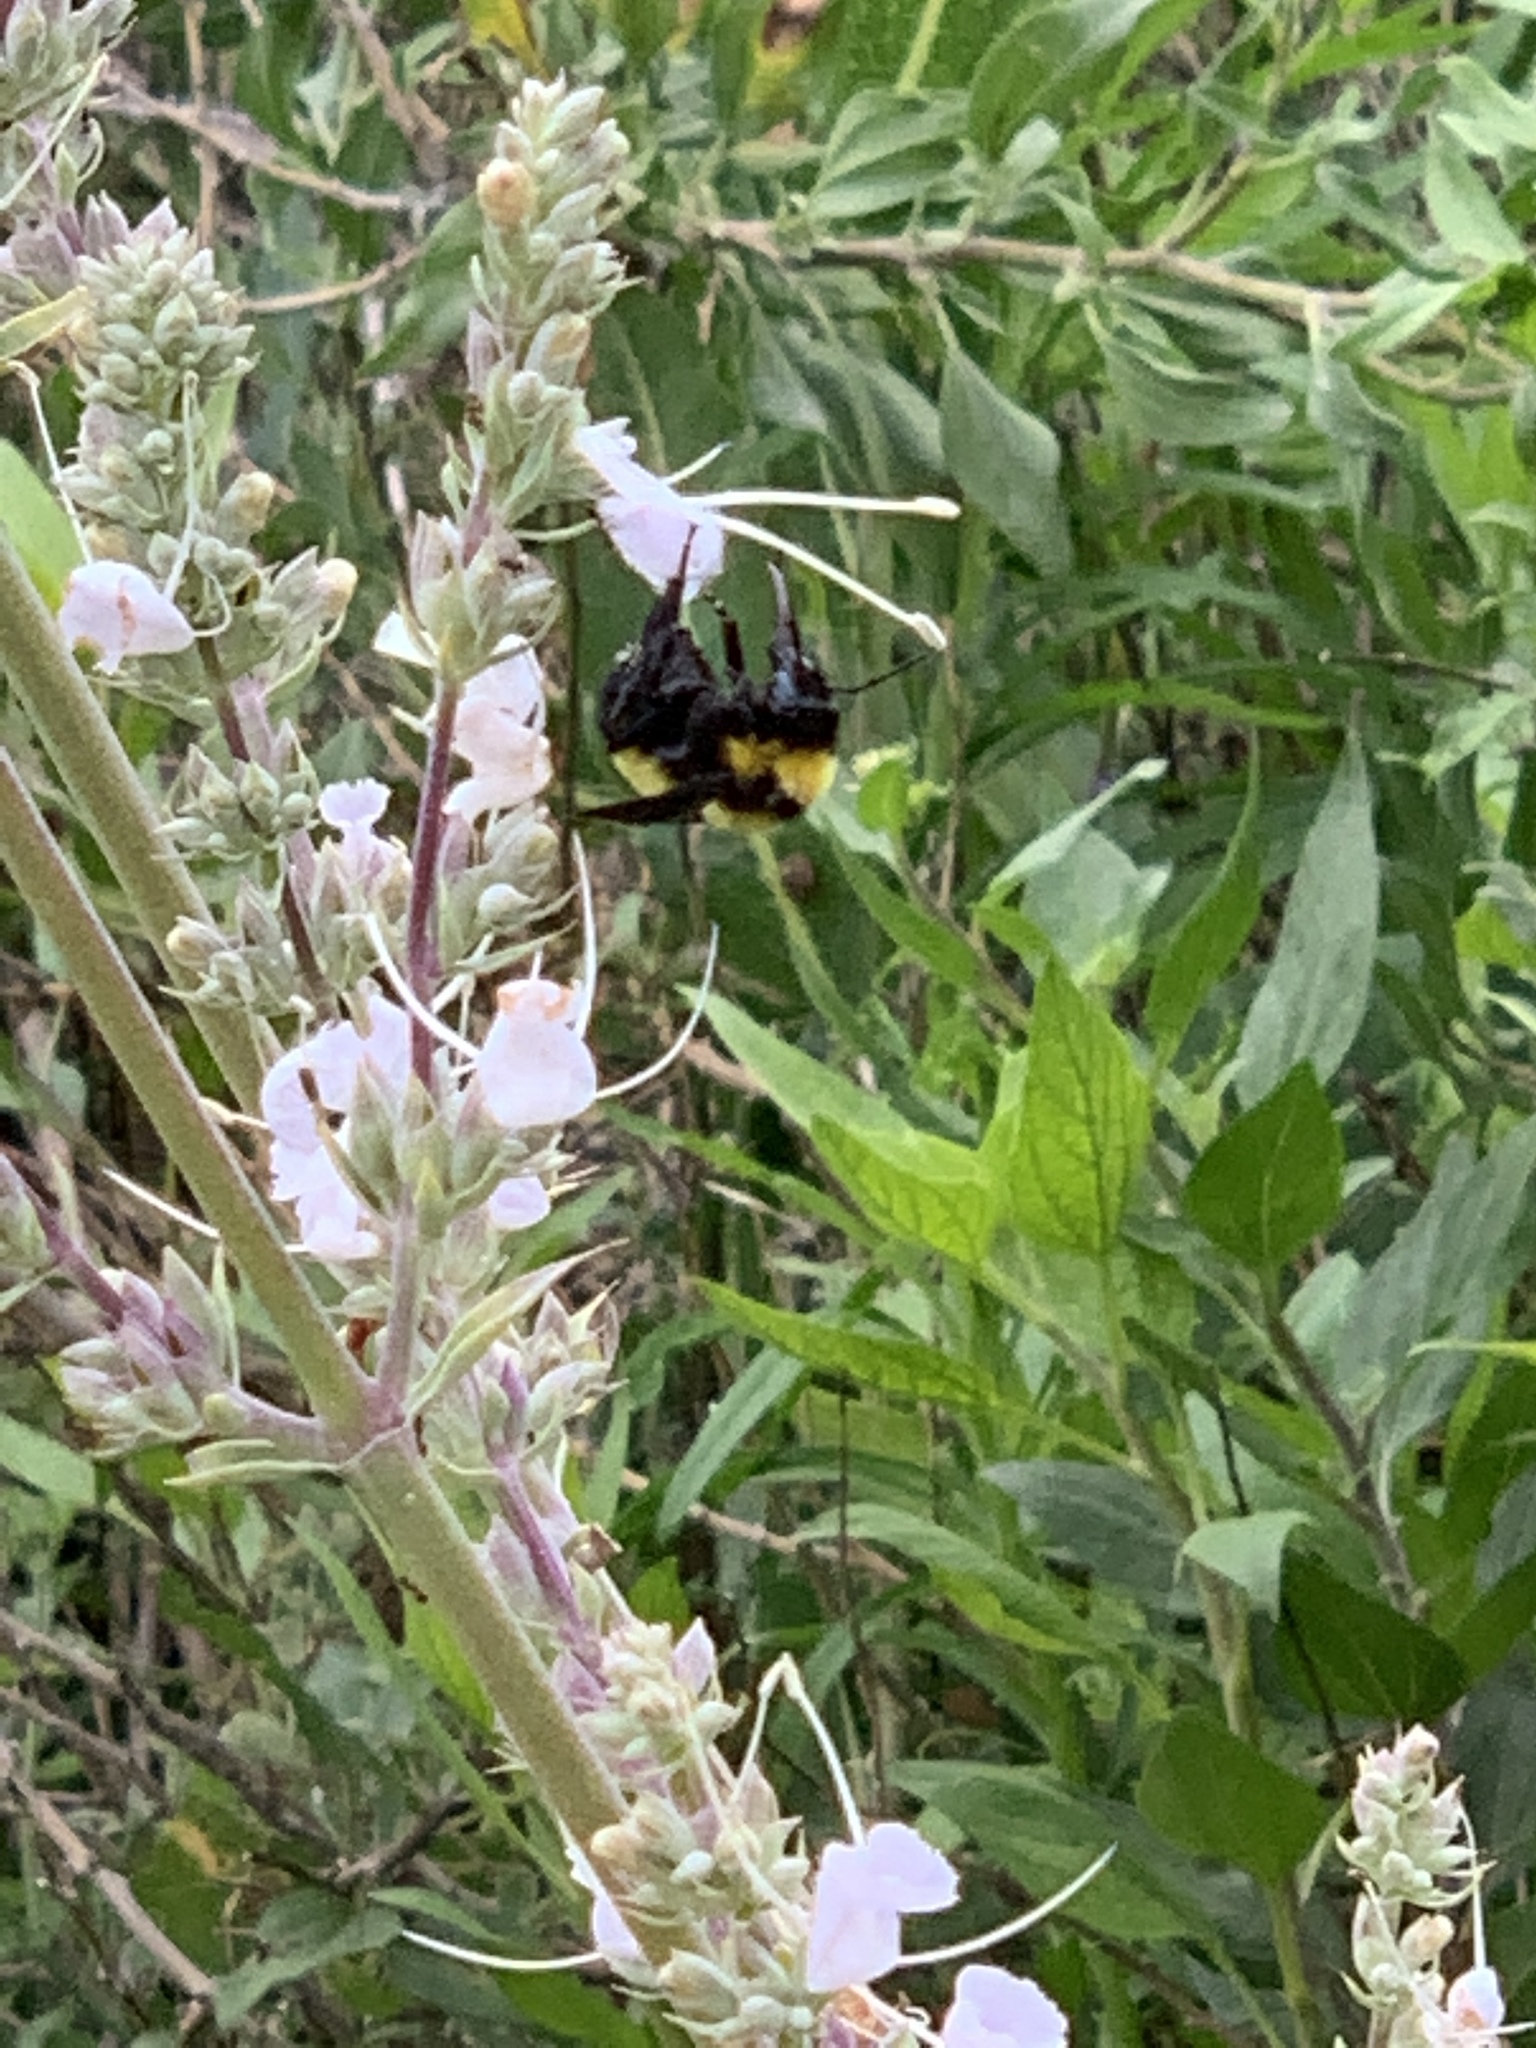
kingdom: Animalia
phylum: Arthropoda
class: Insecta
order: Hymenoptera
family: Apidae
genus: Bombus
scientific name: Bombus sonorus
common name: Sonoran bumble bee
